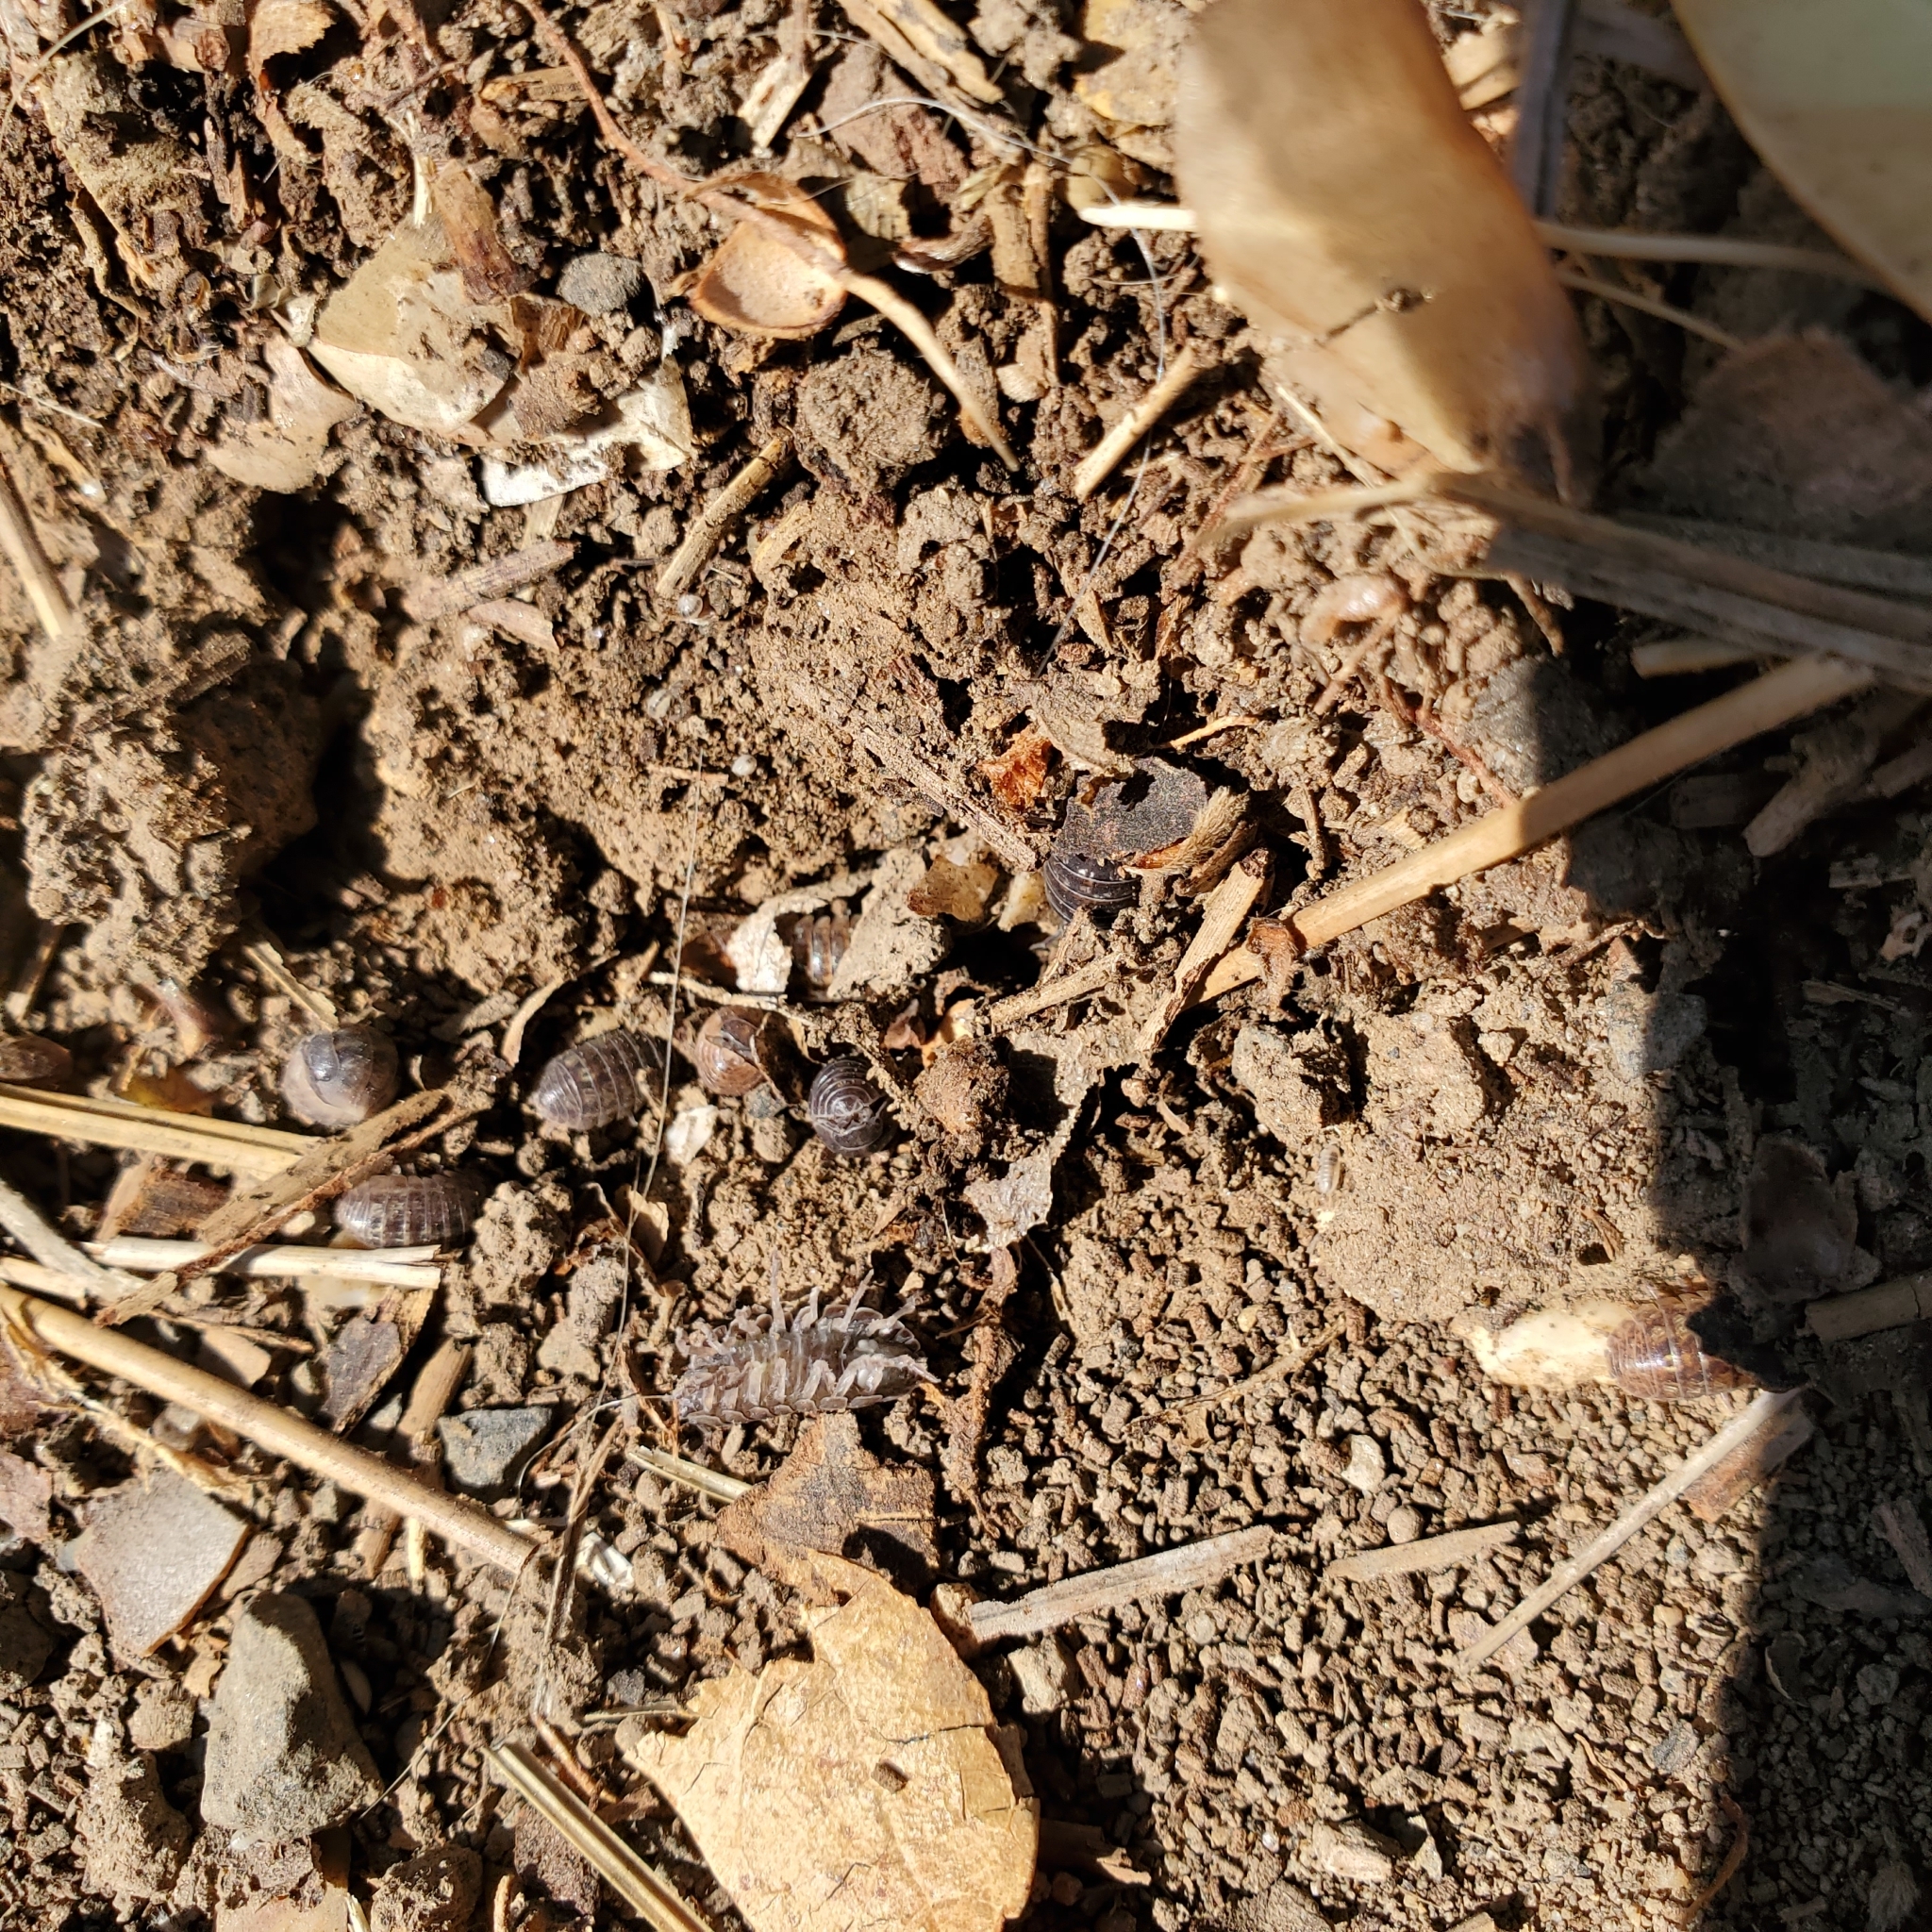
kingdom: Animalia
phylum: Arthropoda
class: Malacostraca
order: Isopoda
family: Armadillidiidae
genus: Armadillidium
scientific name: Armadillidium vulgare
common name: Common pill woodlouse
